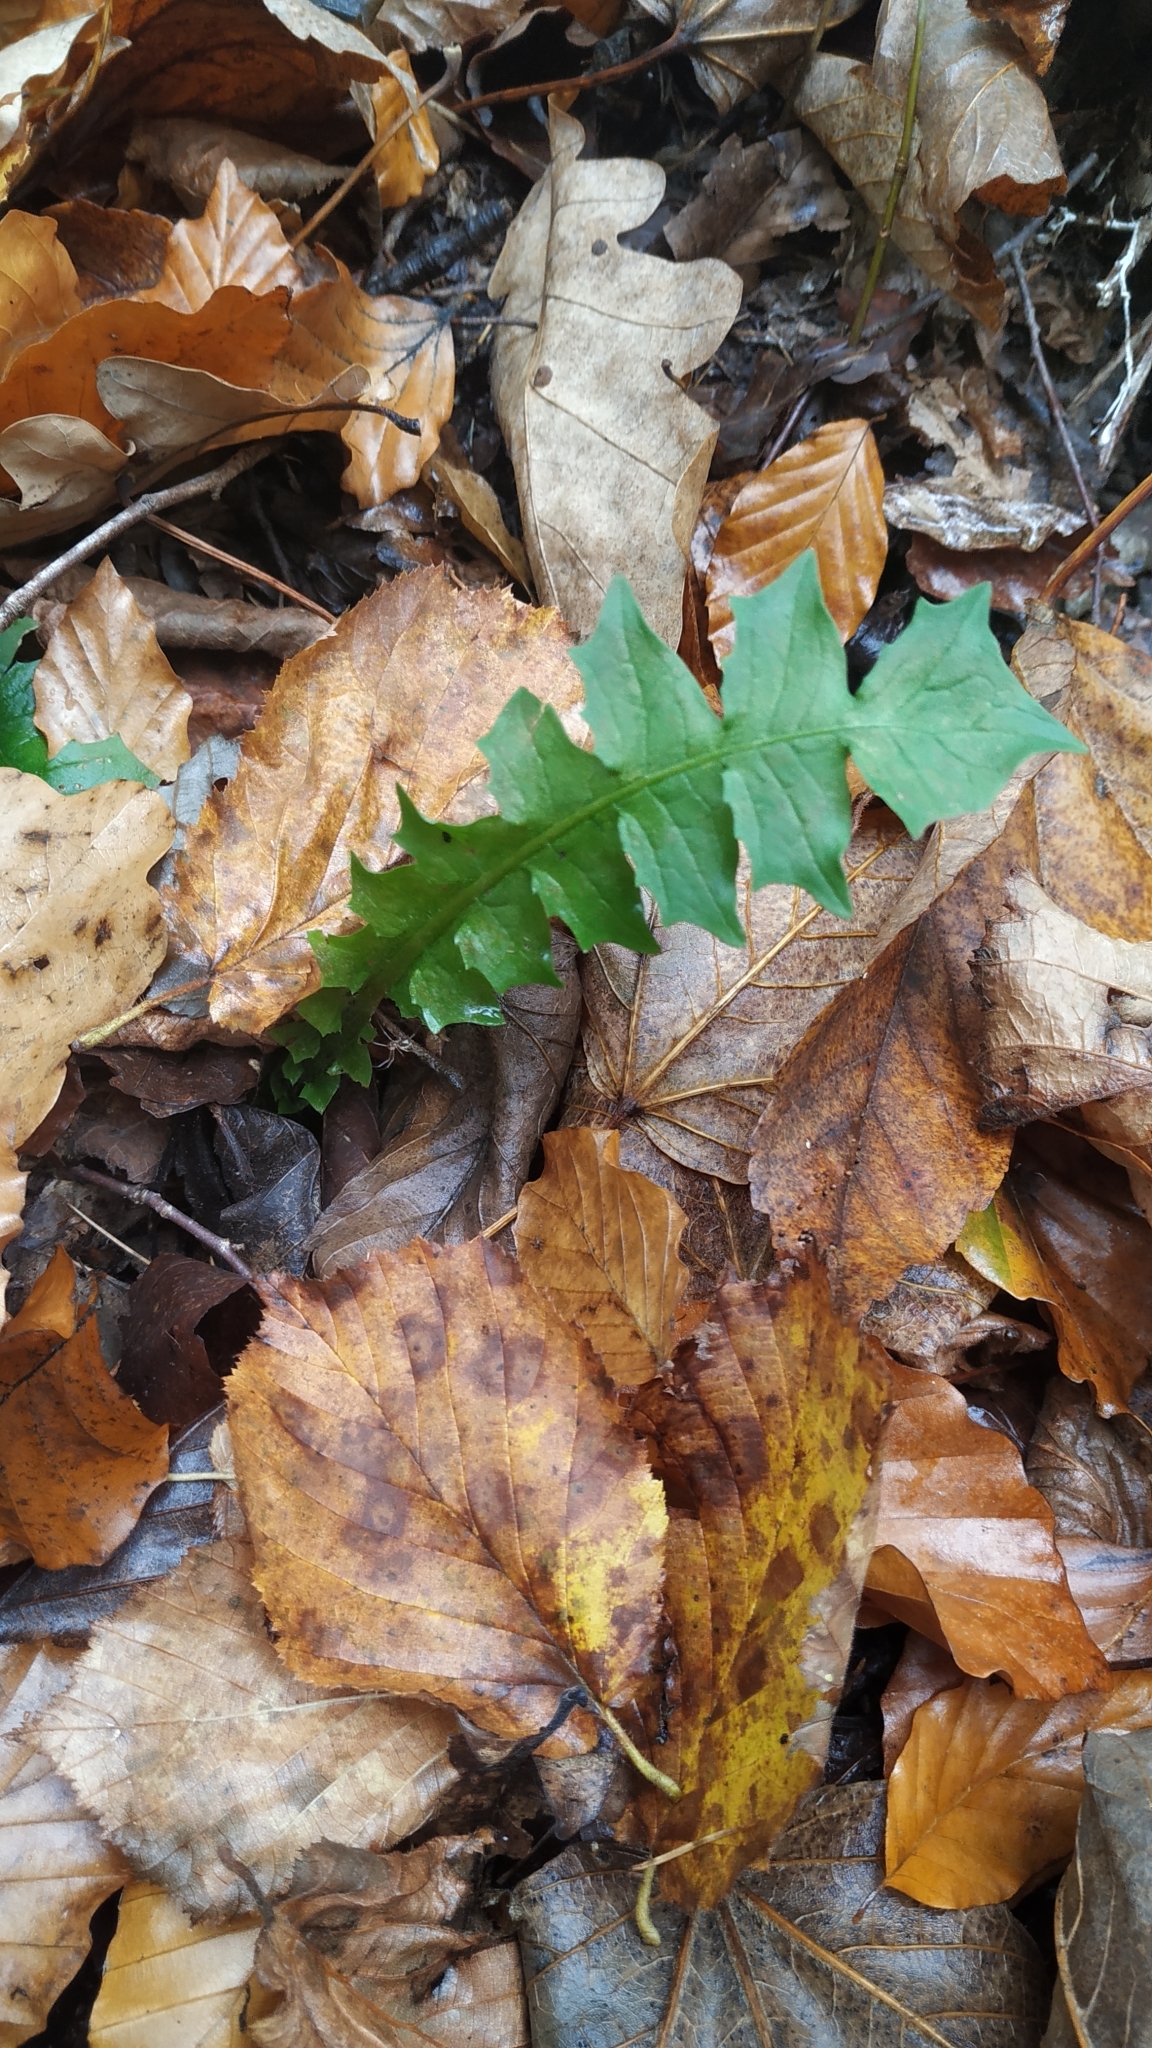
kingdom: Plantae
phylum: Tracheophyta
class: Magnoliopsida
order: Asterales
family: Asteraceae
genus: Aposeris
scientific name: Aposeris foetida
